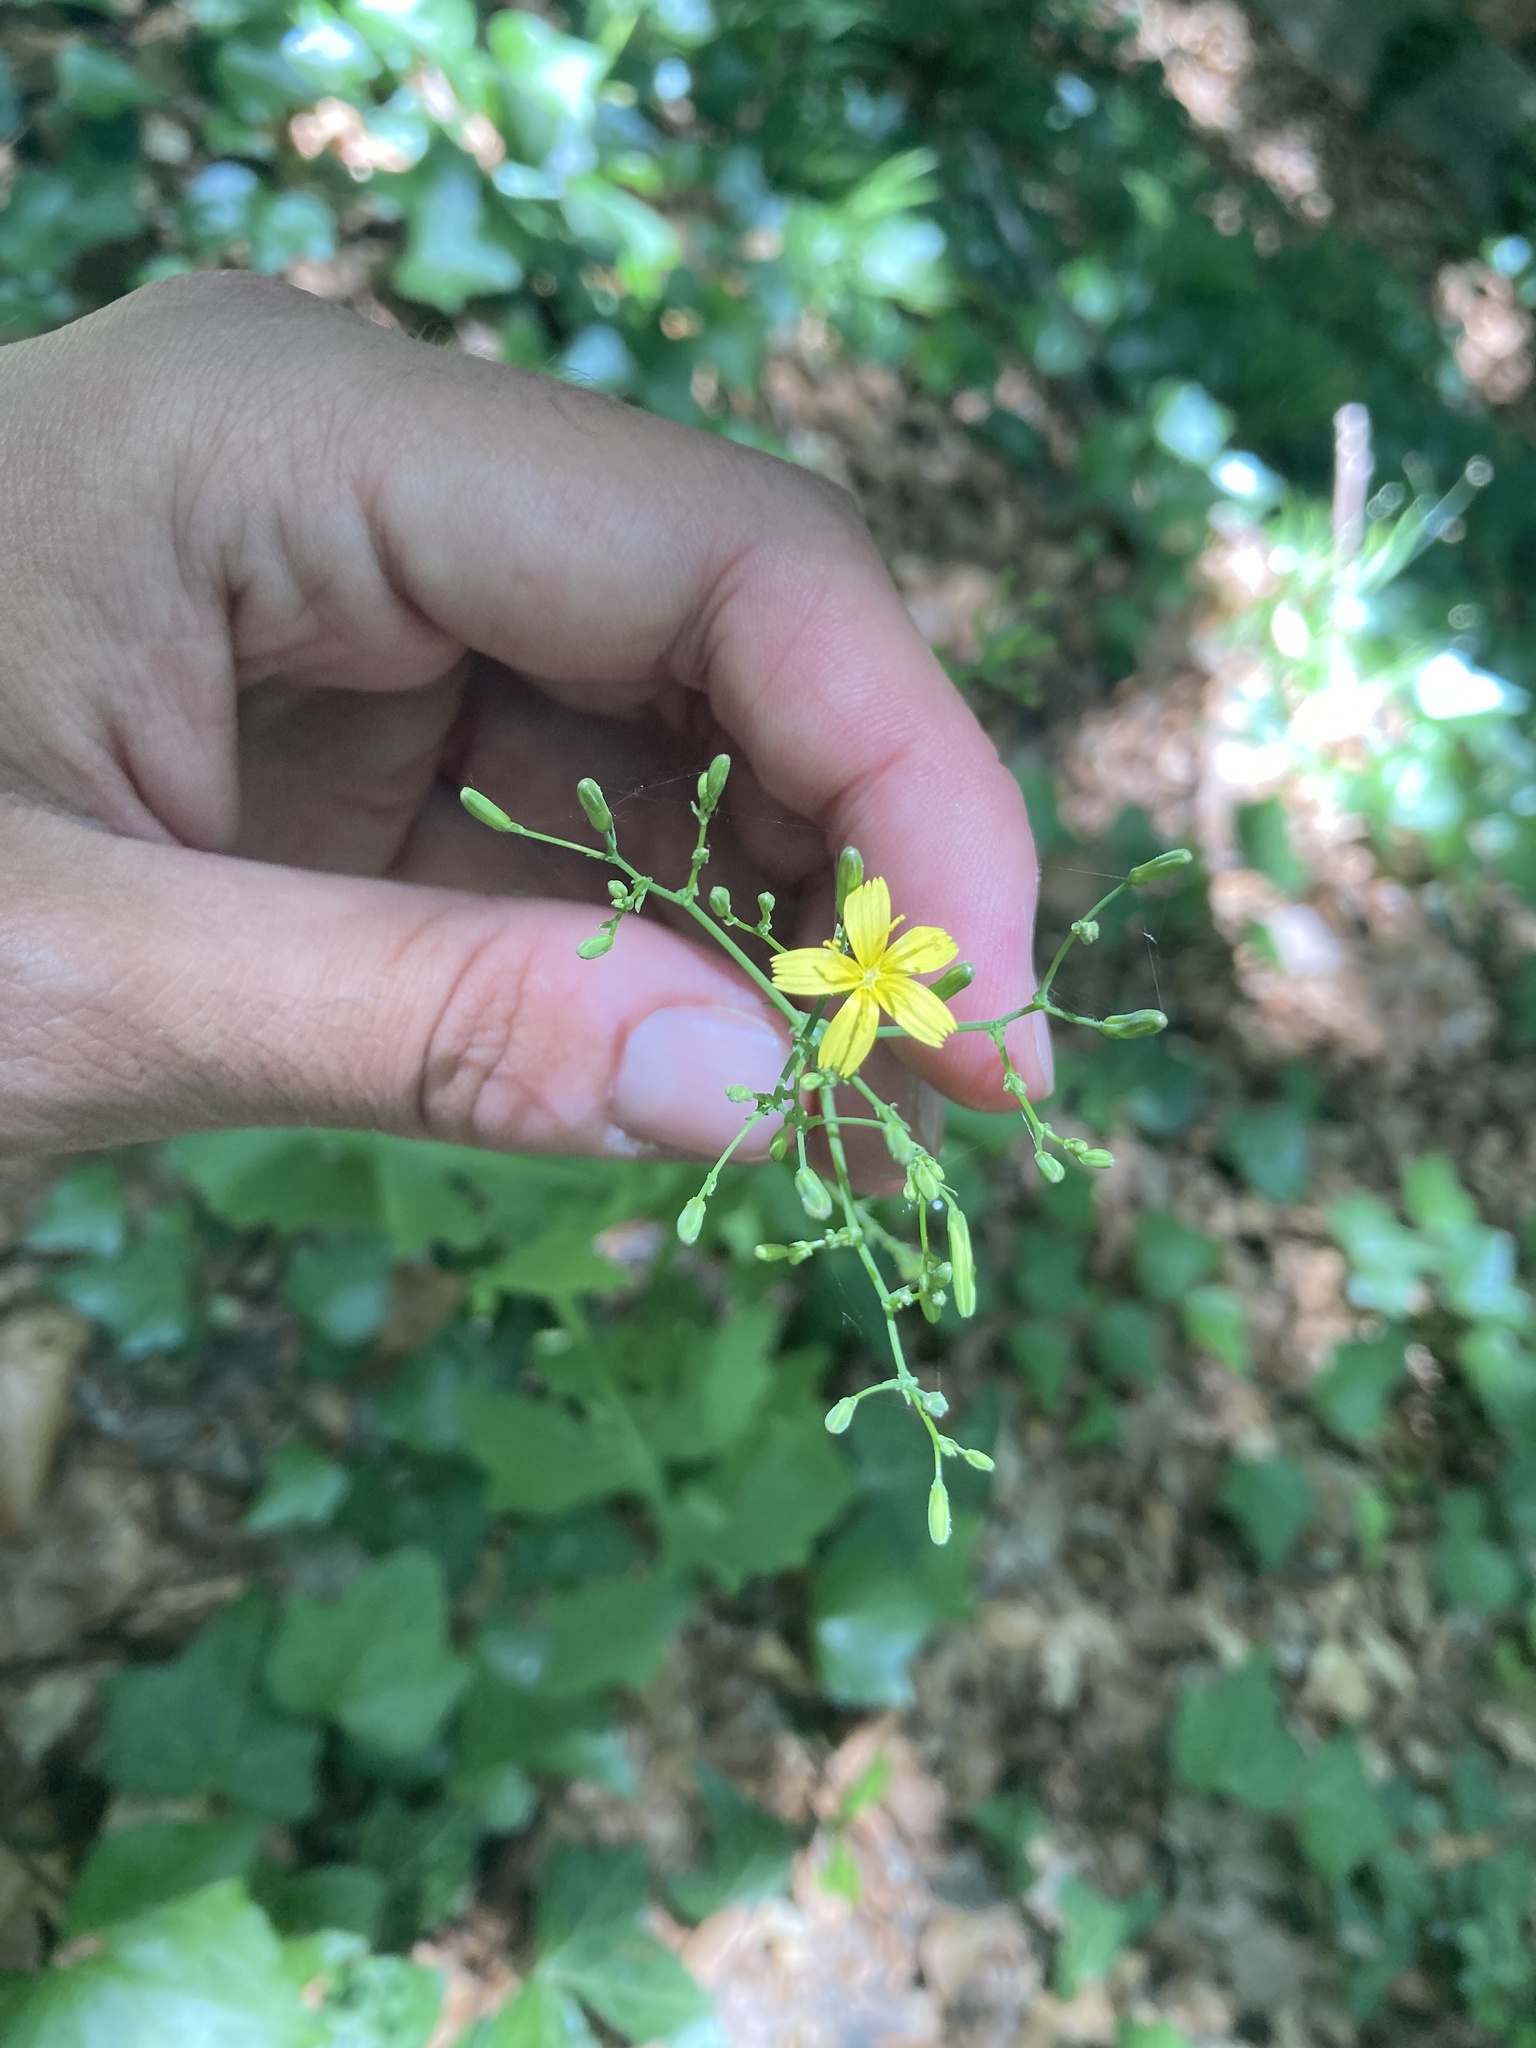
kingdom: Plantae
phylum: Tracheophyta
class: Magnoliopsida
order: Asterales
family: Asteraceae
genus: Mycelis
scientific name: Mycelis muralis
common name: Wall lettuce
